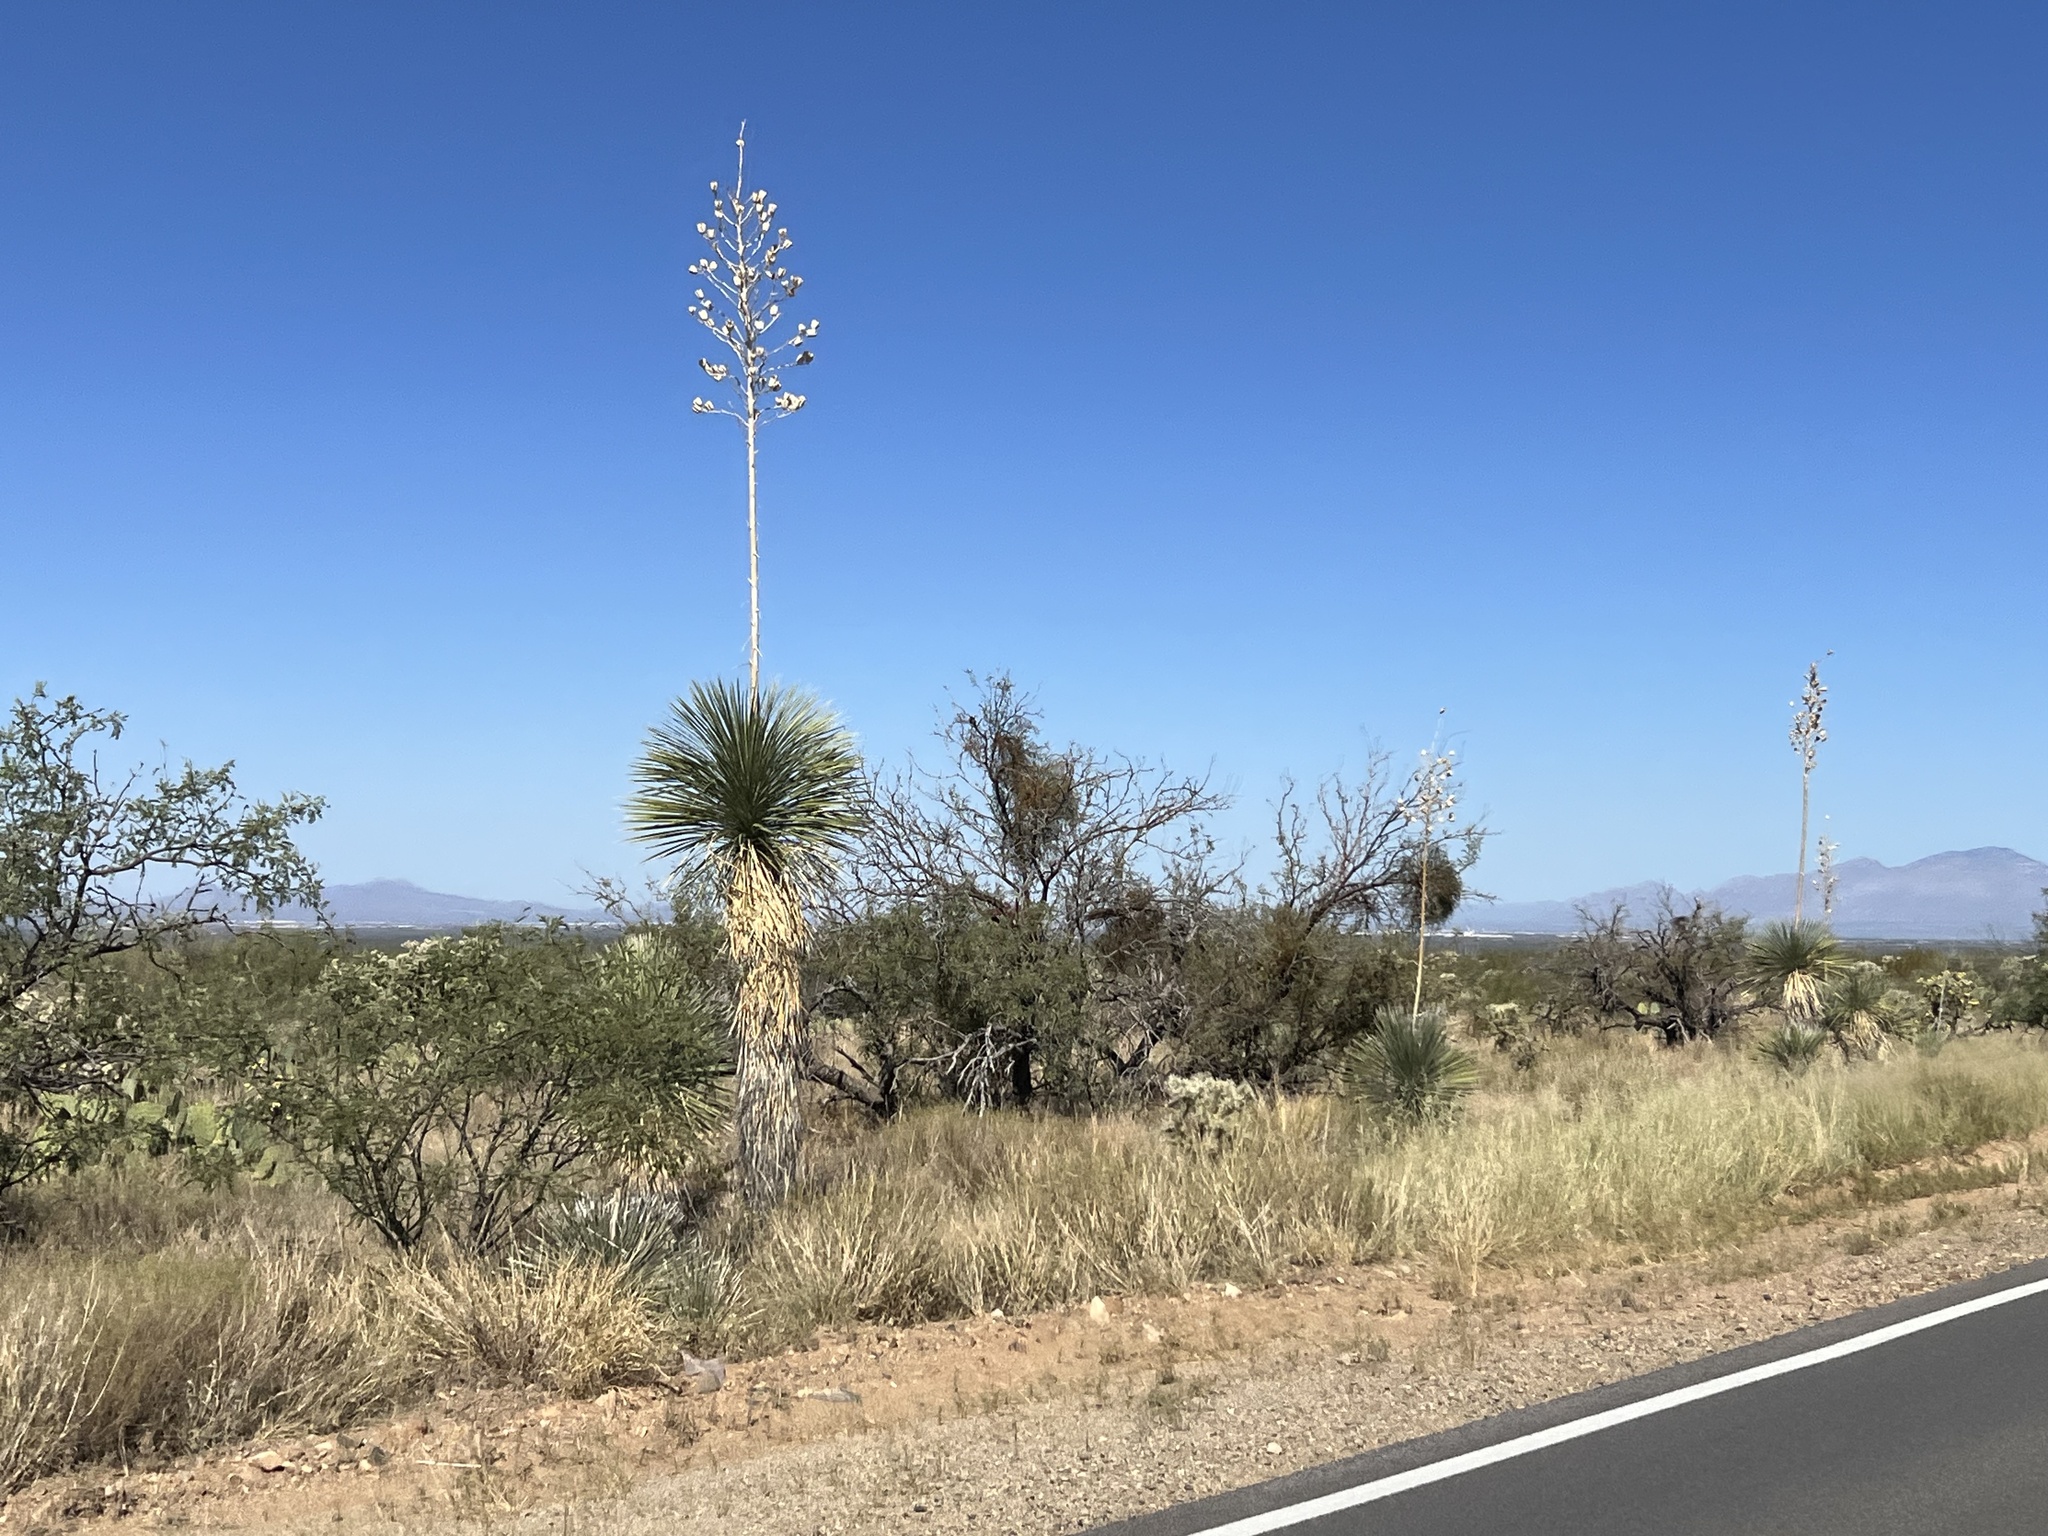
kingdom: Plantae
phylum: Tracheophyta
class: Liliopsida
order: Asparagales
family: Asparagaceae
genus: Yucca
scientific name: Yucca elata
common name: Palmella
